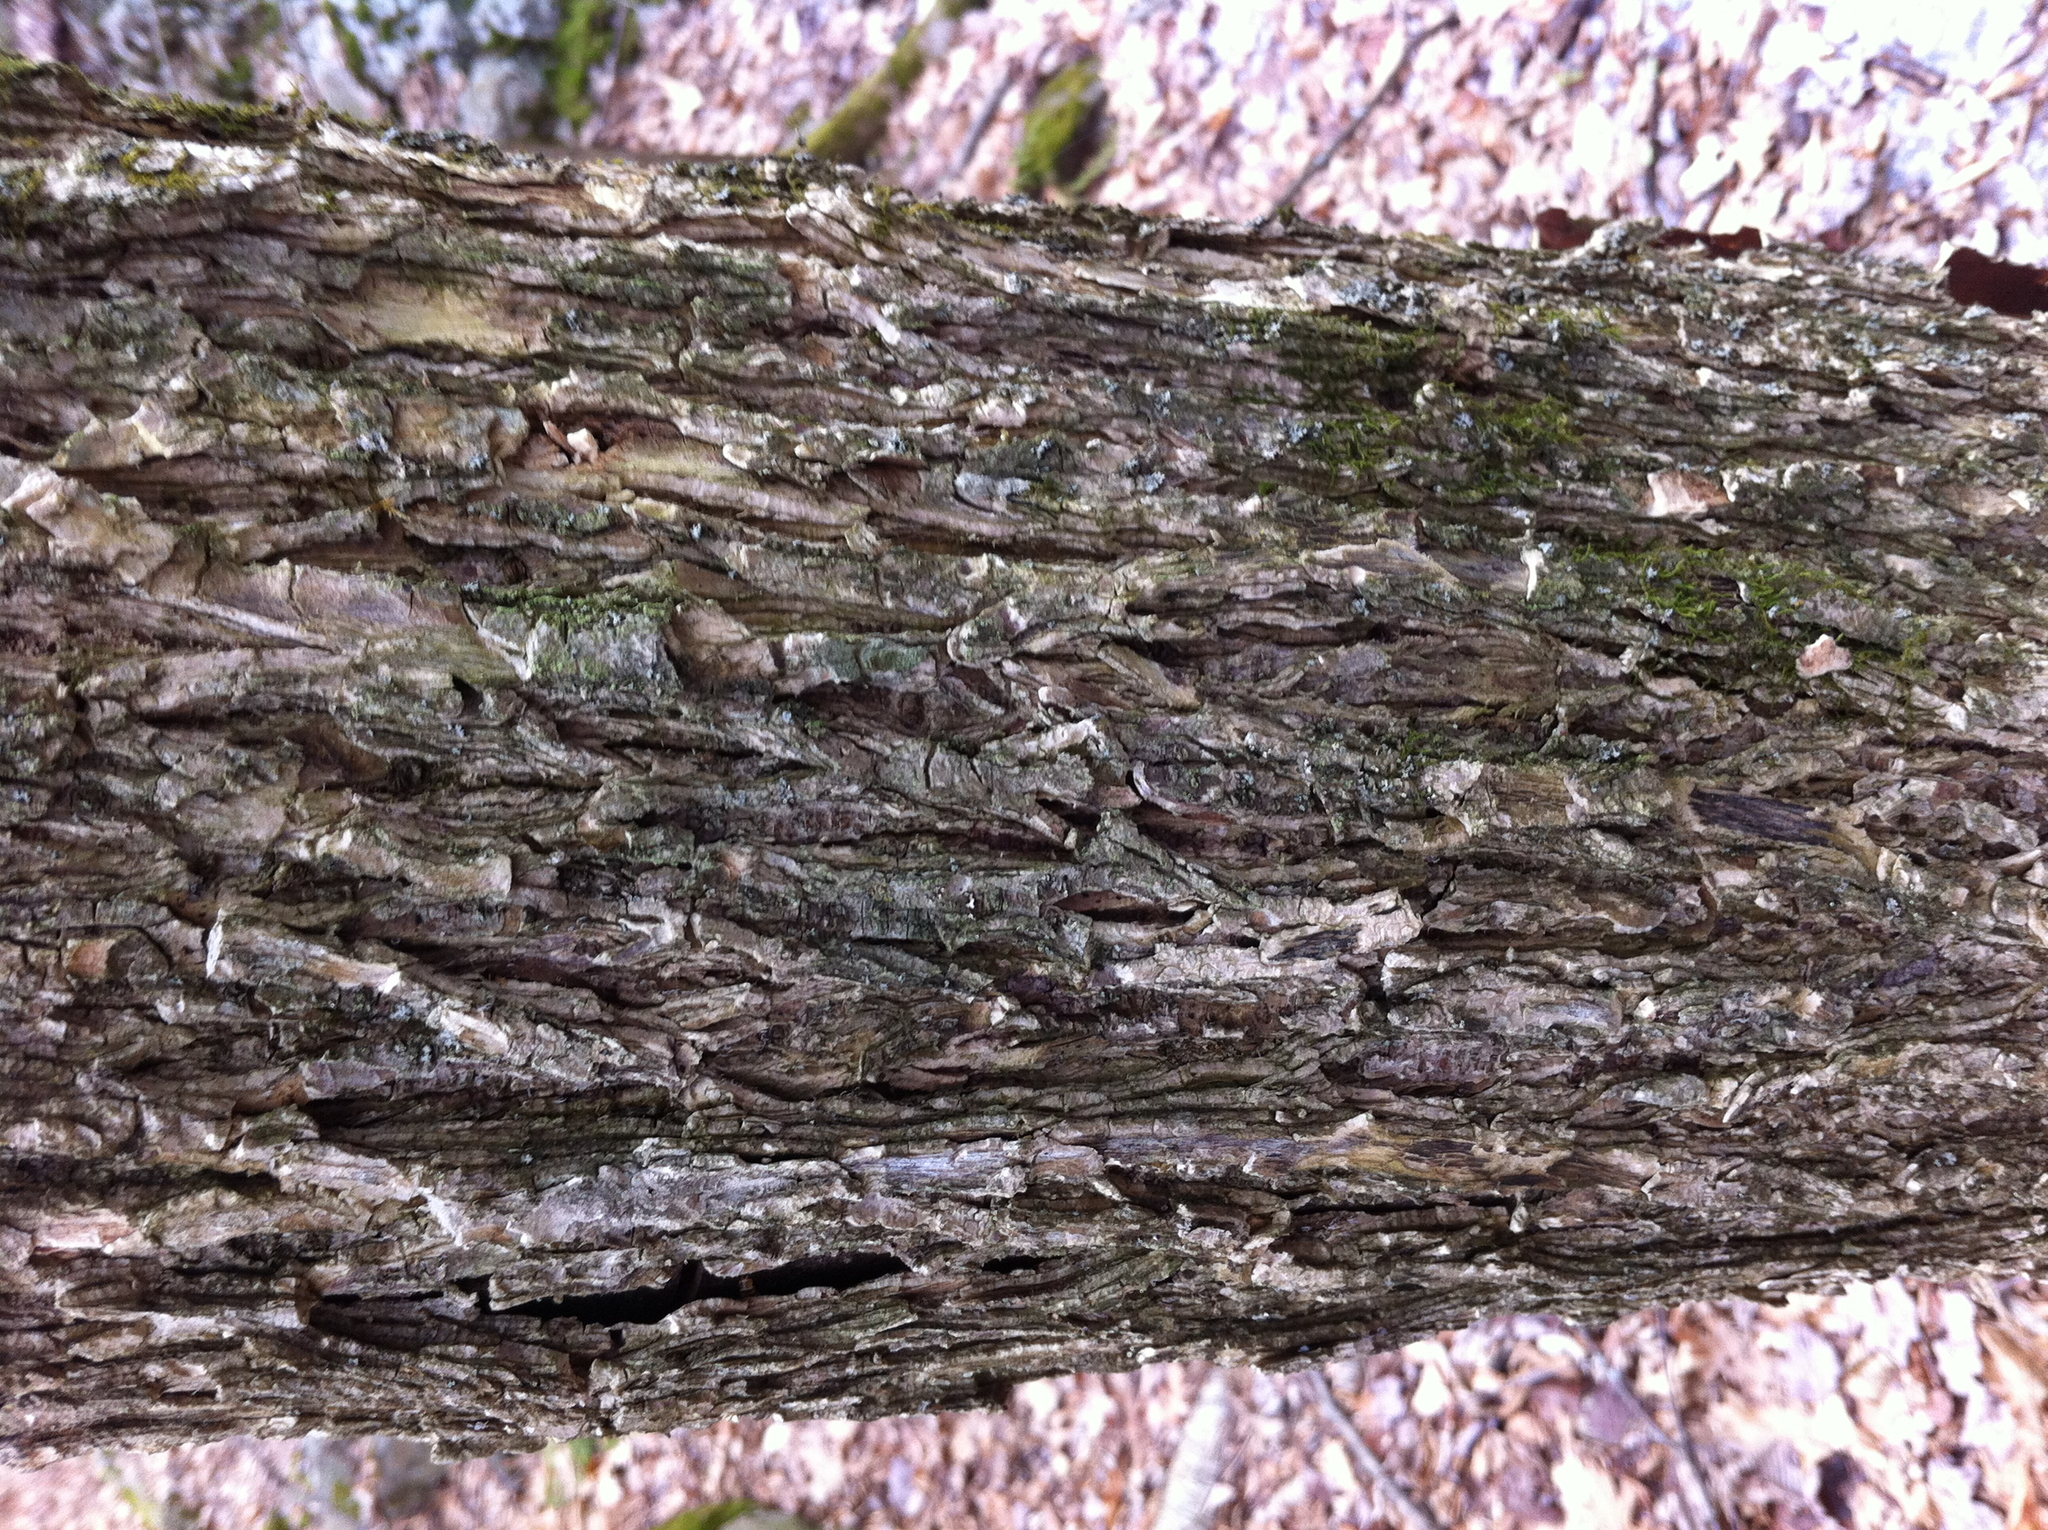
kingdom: Plantae
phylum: Tracheophyta
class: Magnoliopsida
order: Rosales
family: Ulmaceae
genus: Ulmus
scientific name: Ulmus americana
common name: American elm
